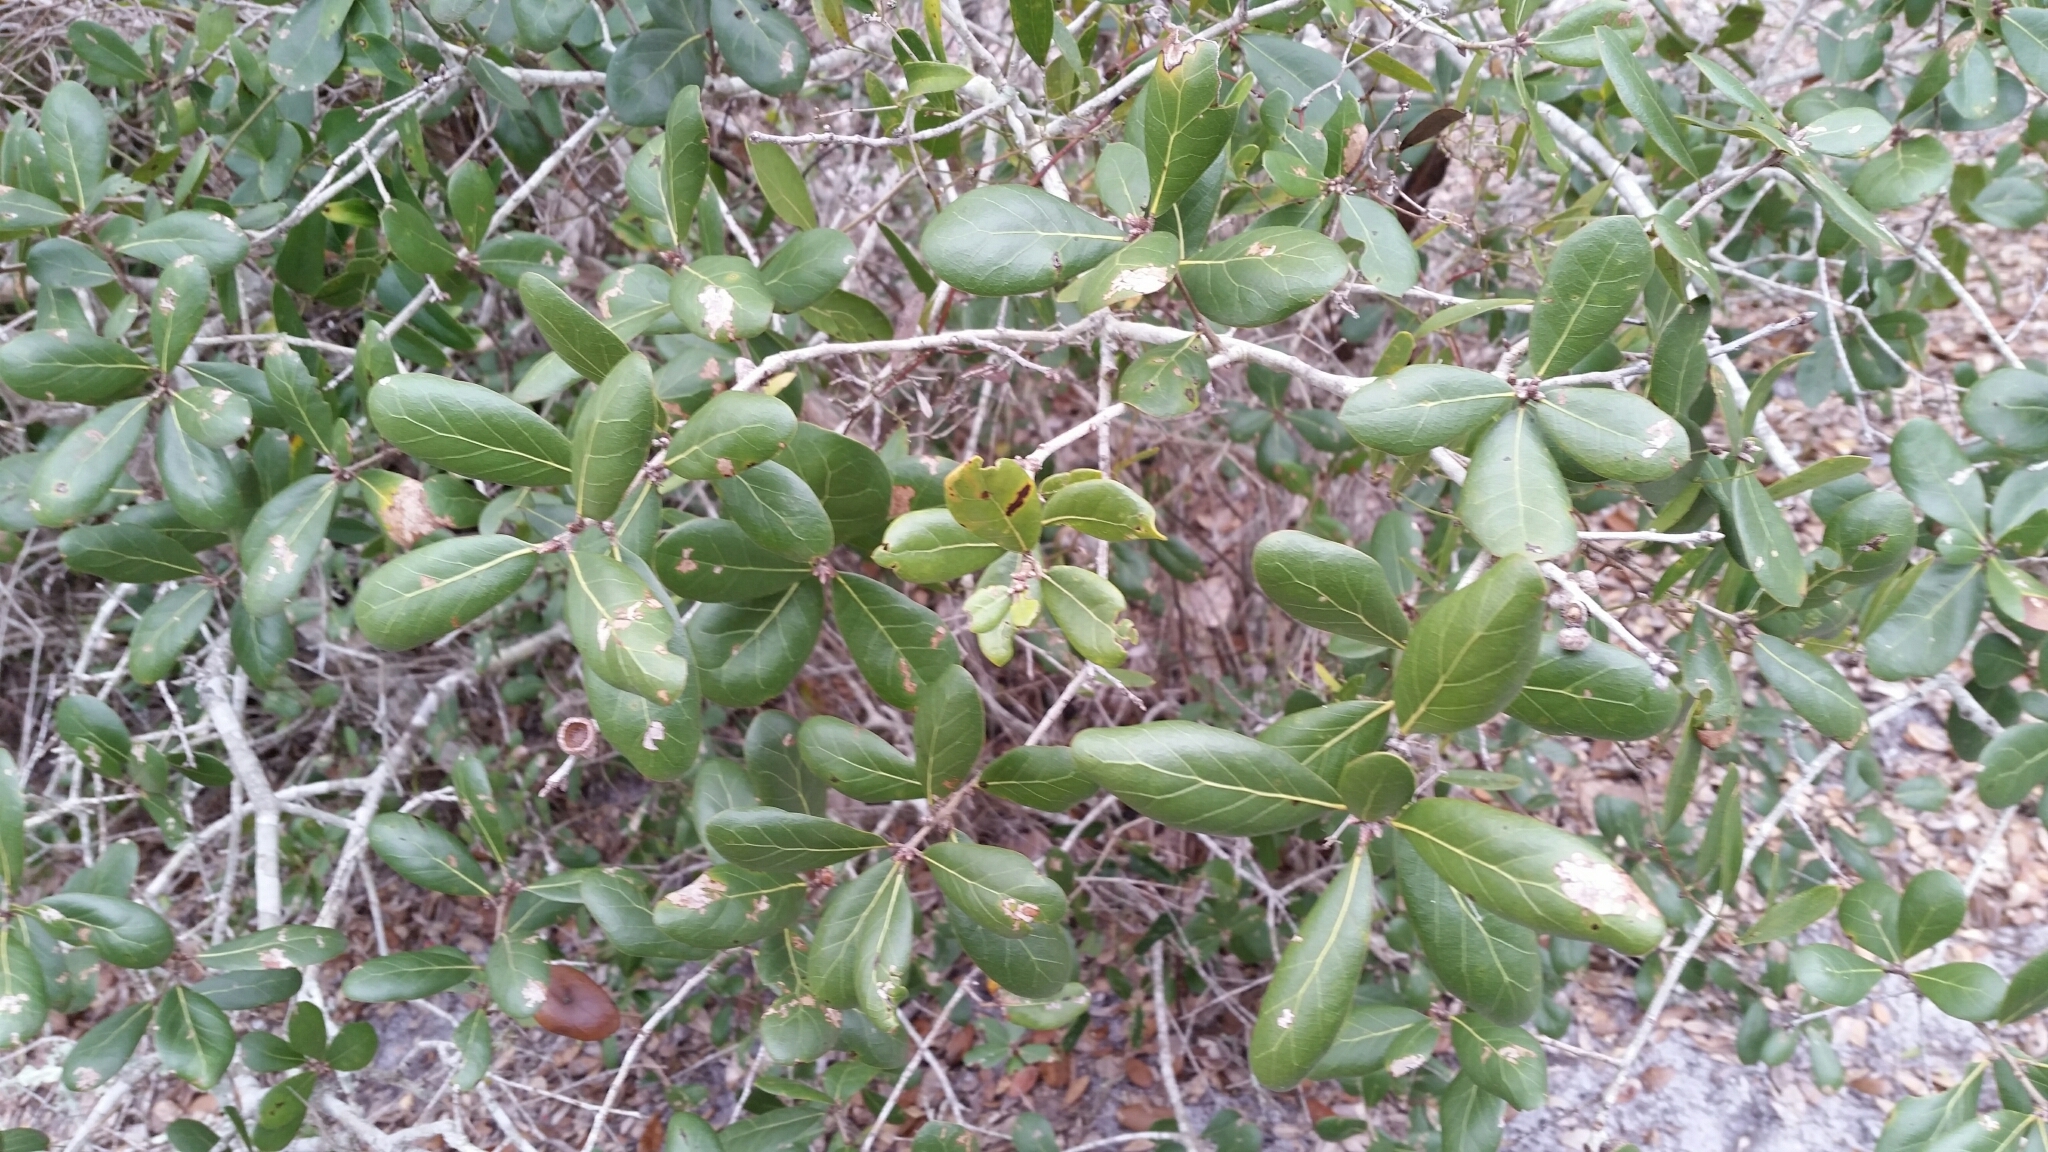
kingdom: Plantae
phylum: Tracheophyta
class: Magnoliopsida
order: Fagales
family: Fagaceae
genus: Quercus
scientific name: Quercus myrtifolia
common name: Myrtle oak
